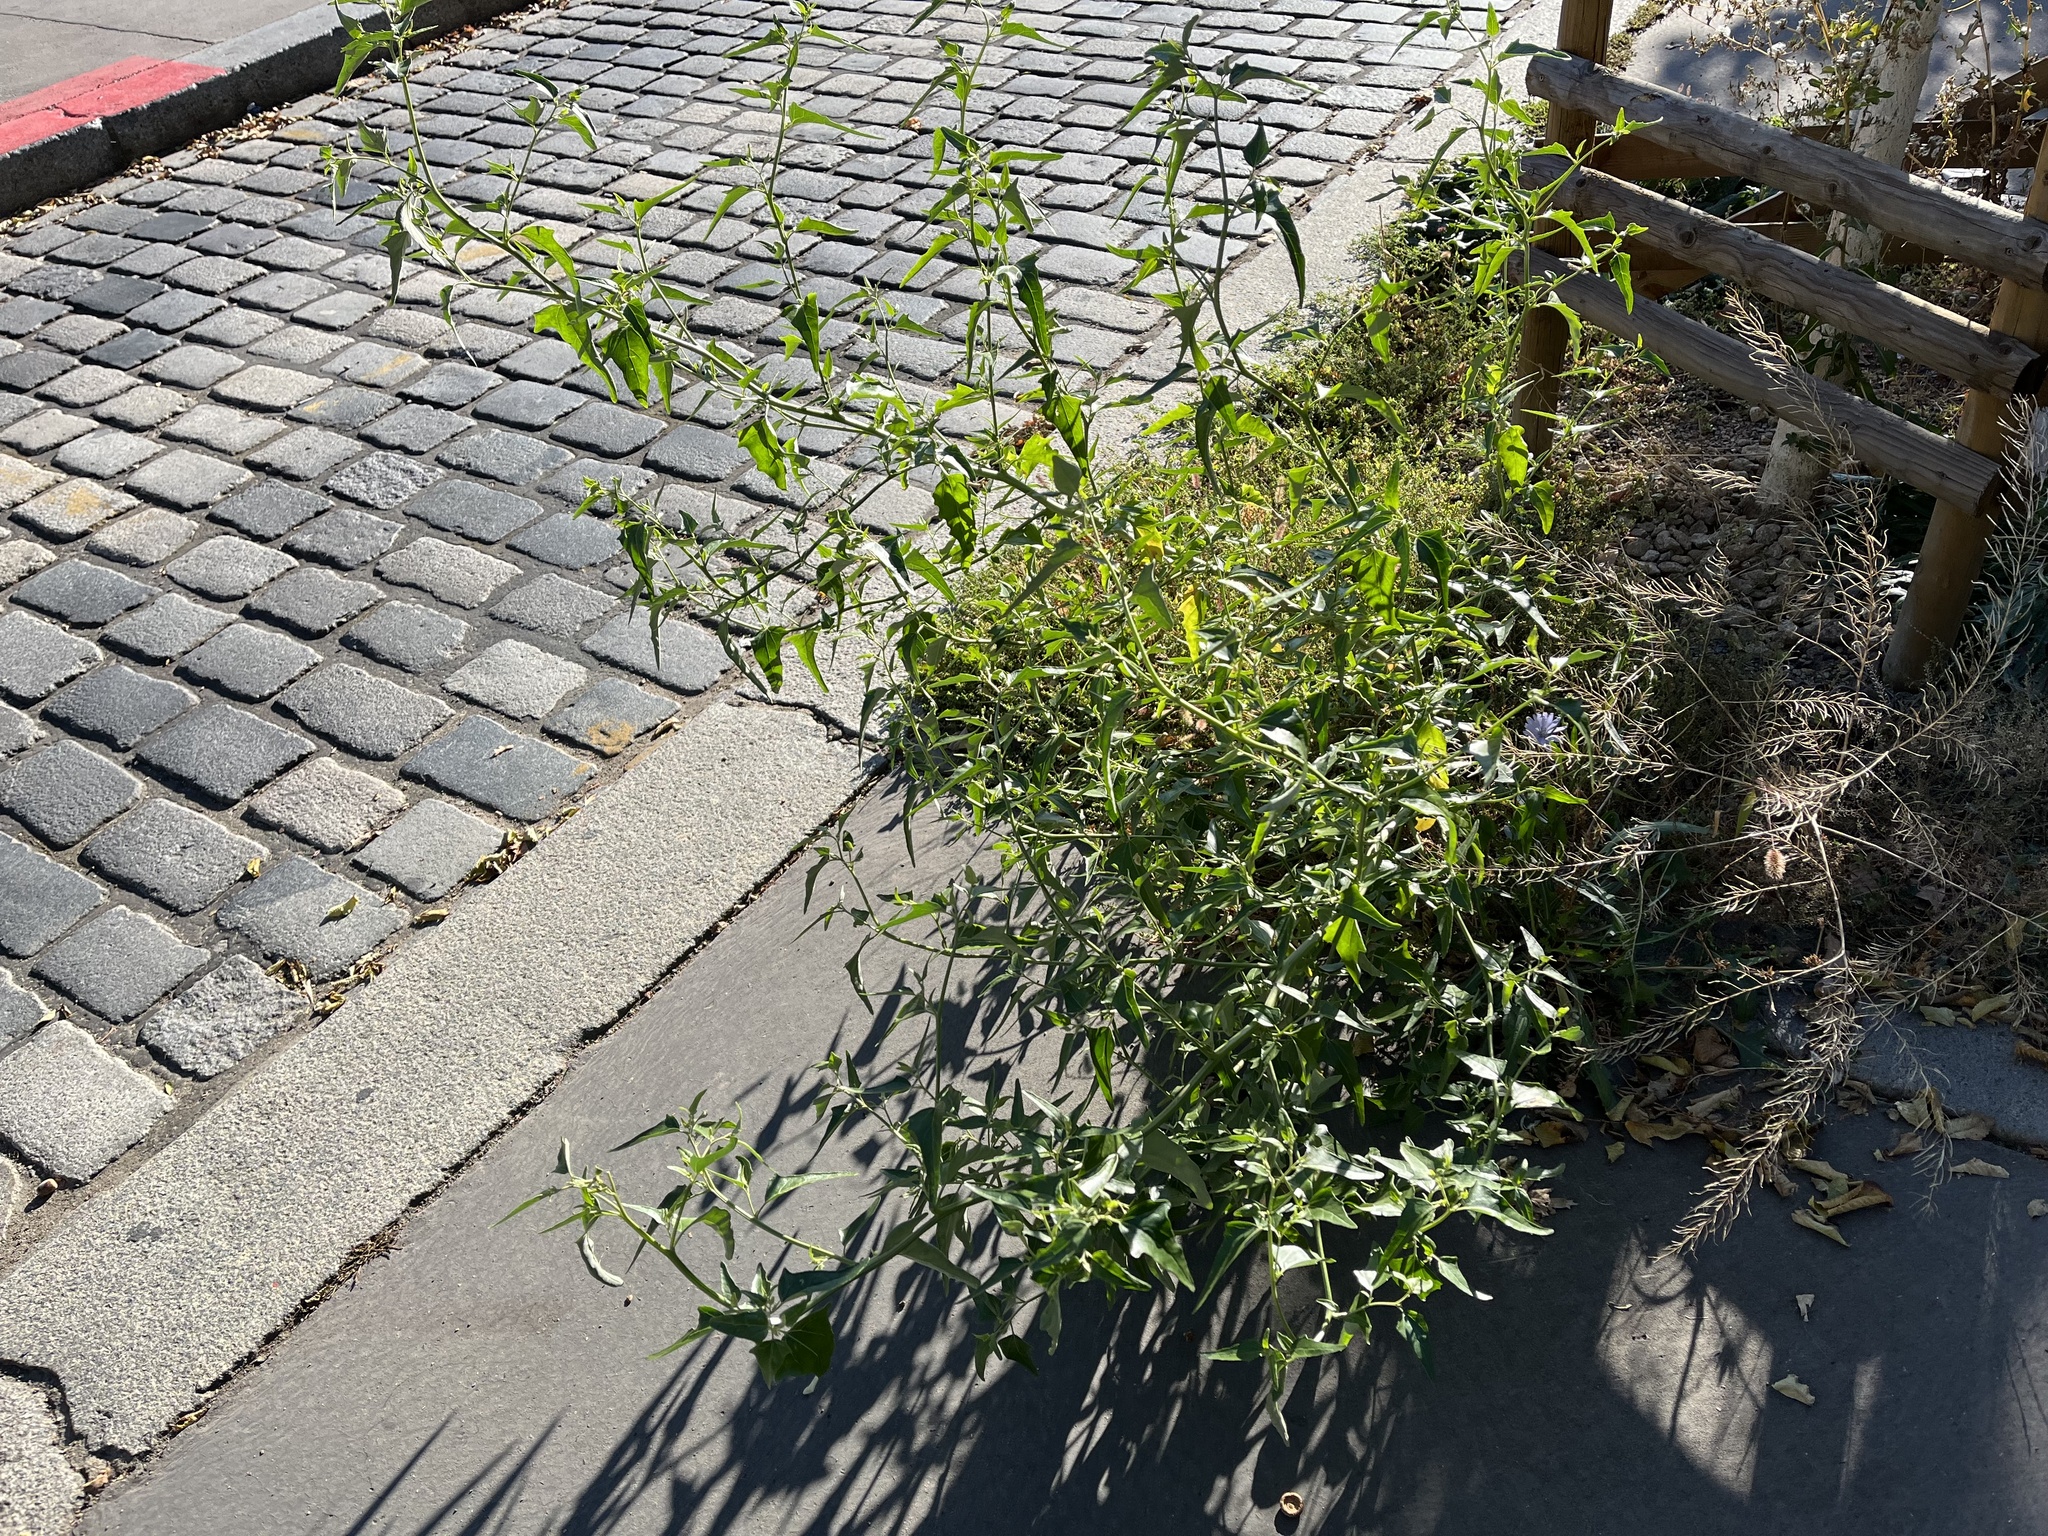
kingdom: Plantae
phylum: Tracheophyta
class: Magnoliopsida
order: Caryophyllales
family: Amaranthaceae
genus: Atriplex
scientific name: Atriplex sagittata
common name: Purple orache
